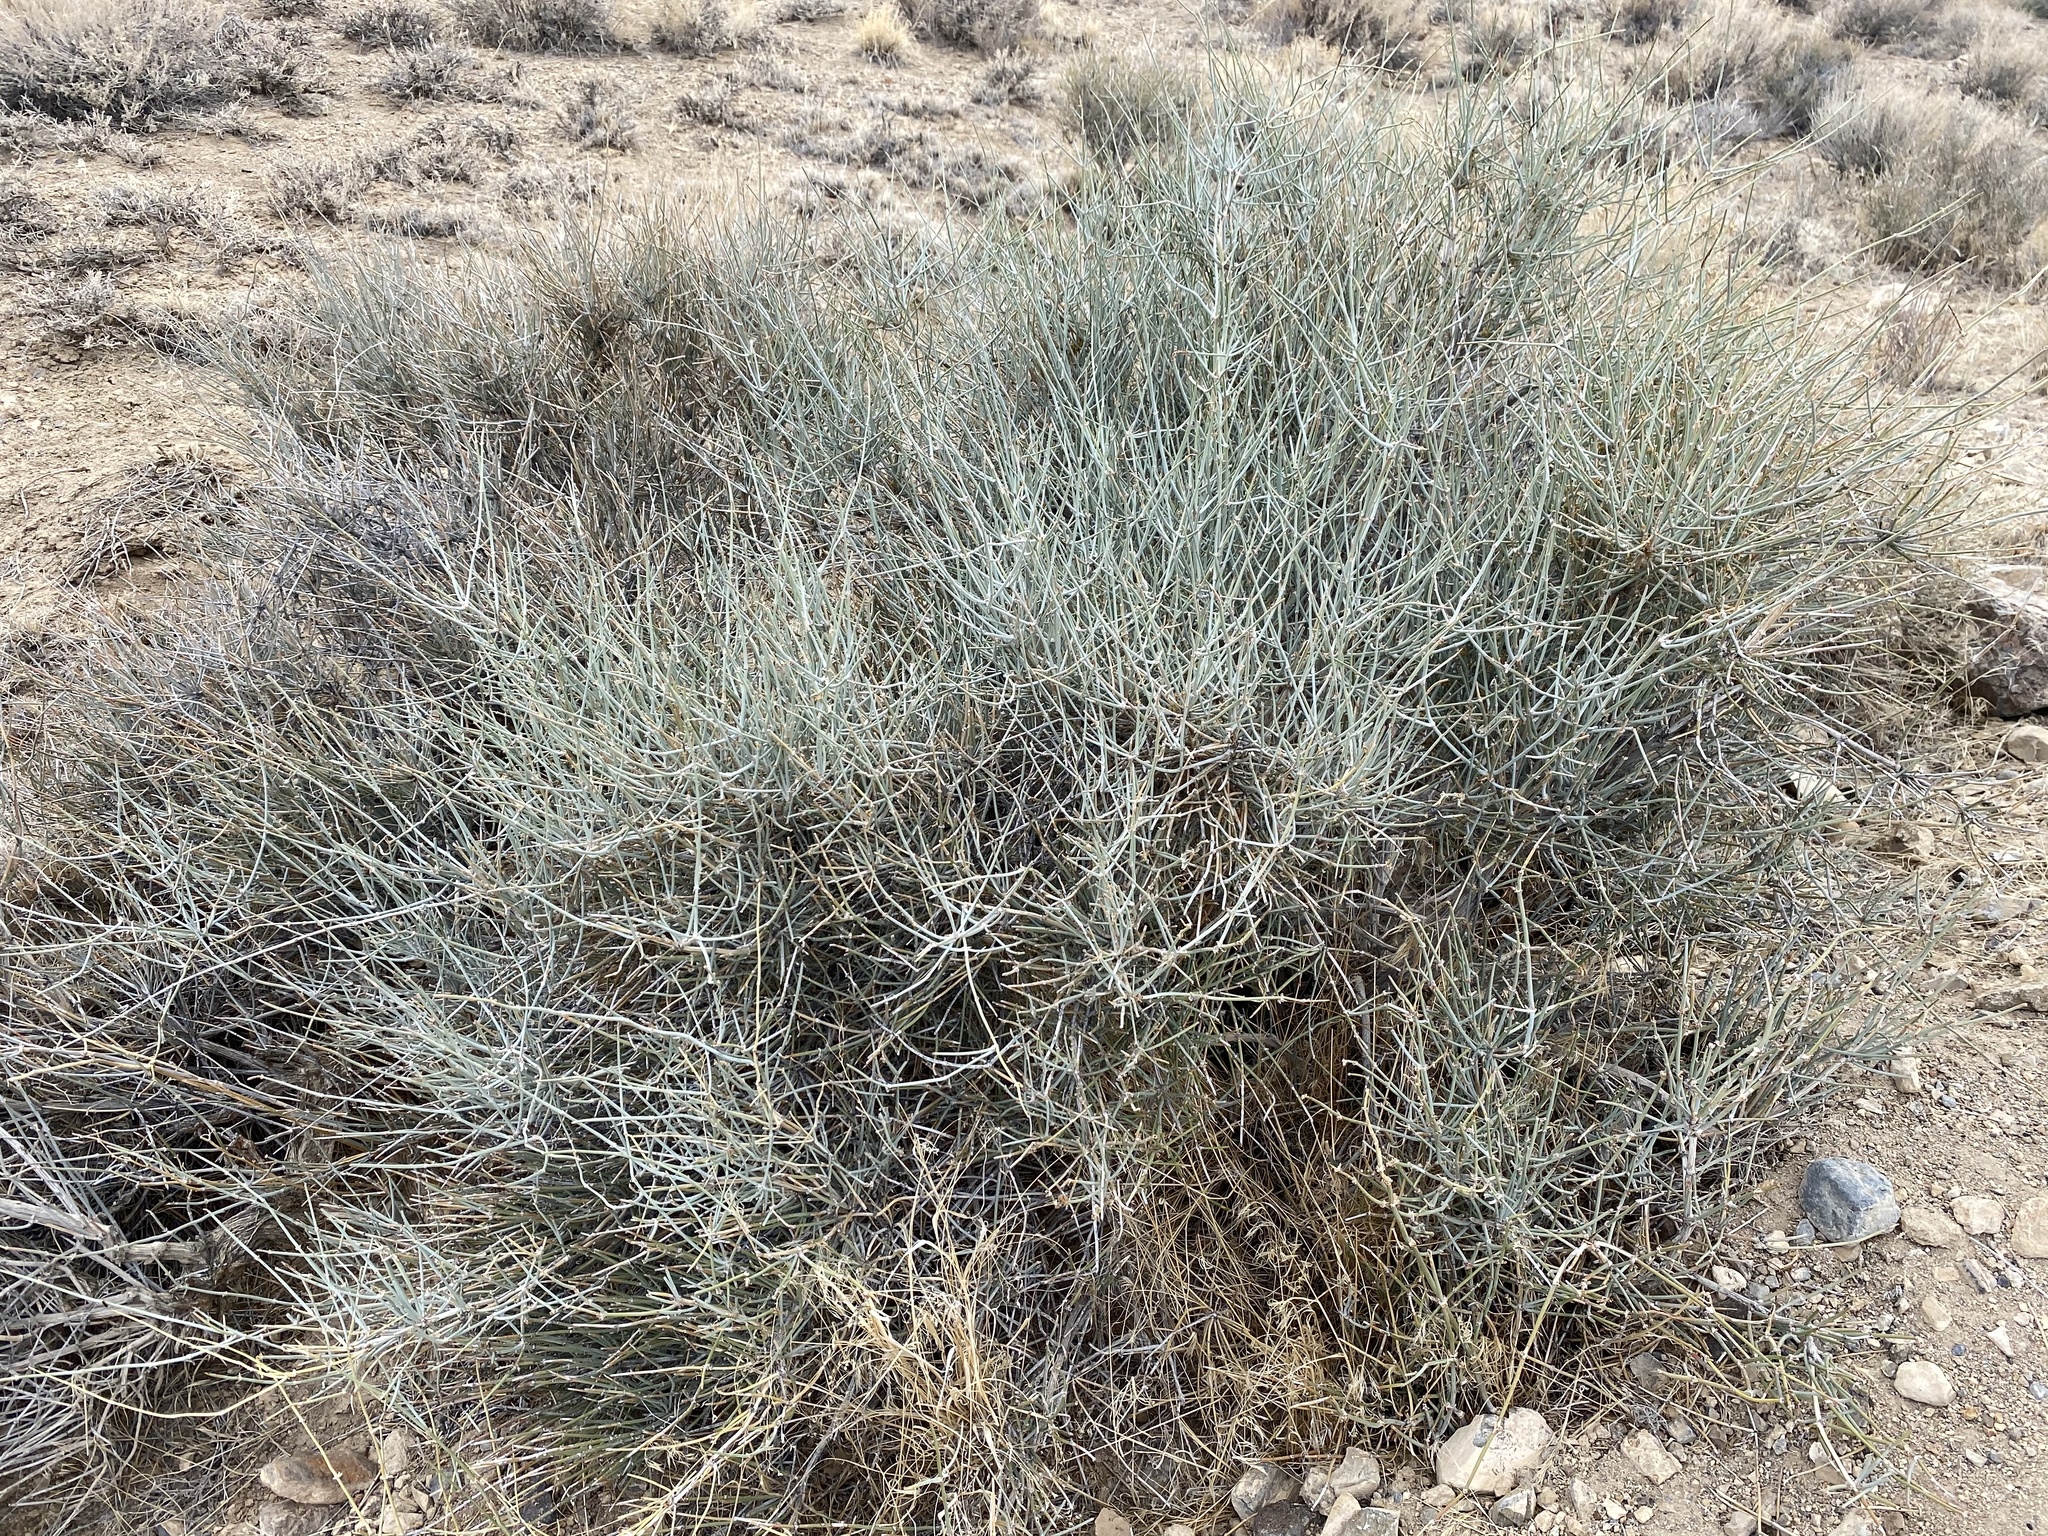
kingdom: Plantae
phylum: Tracheophyta
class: Gnetopsida
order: Ephedrales
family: Ephedraceae
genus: Ephedra
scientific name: Ephedra nevadensis
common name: Gray ephedra
